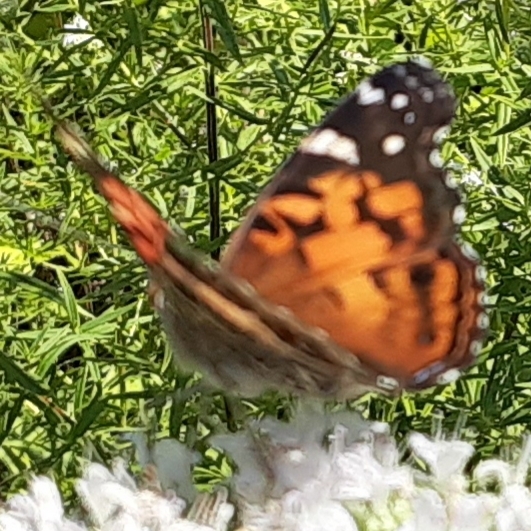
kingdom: Animalia
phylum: Arthropoda
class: Insecta
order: Lepidoptera
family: Nymphalidae
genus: Vanessa
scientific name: Vanessa virginiensis
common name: American lady
